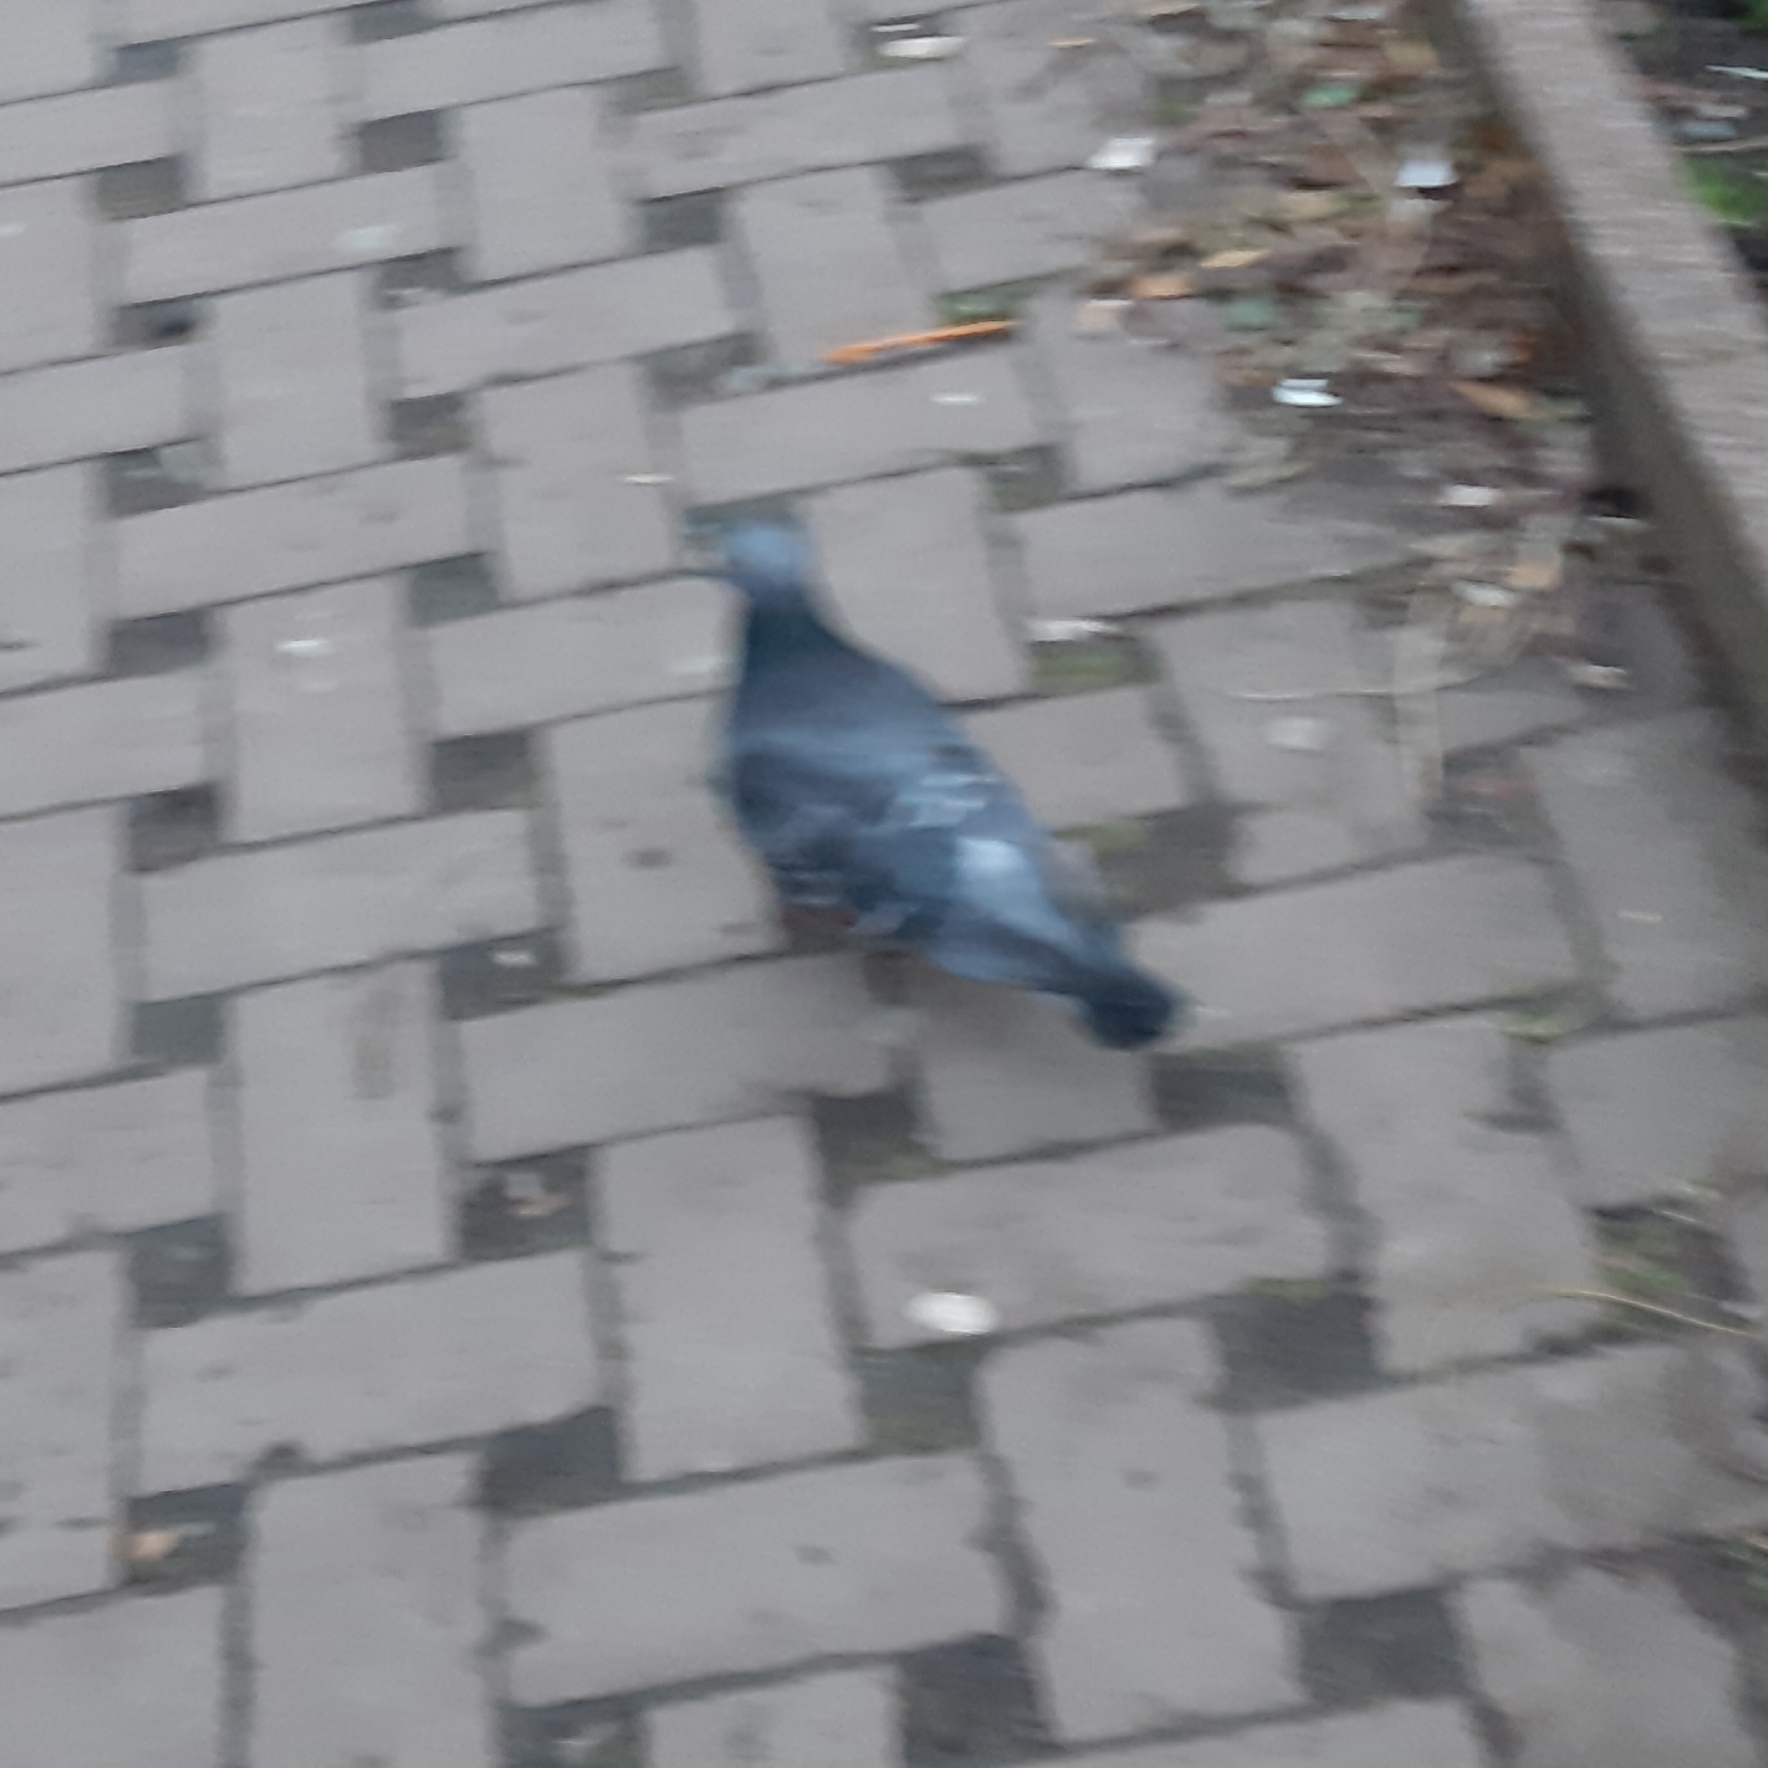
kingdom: Animalia
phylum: Chordata
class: Aves
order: Columbiformes
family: Columbidae
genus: Columba
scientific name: Columba livia
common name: Rock pigeon
